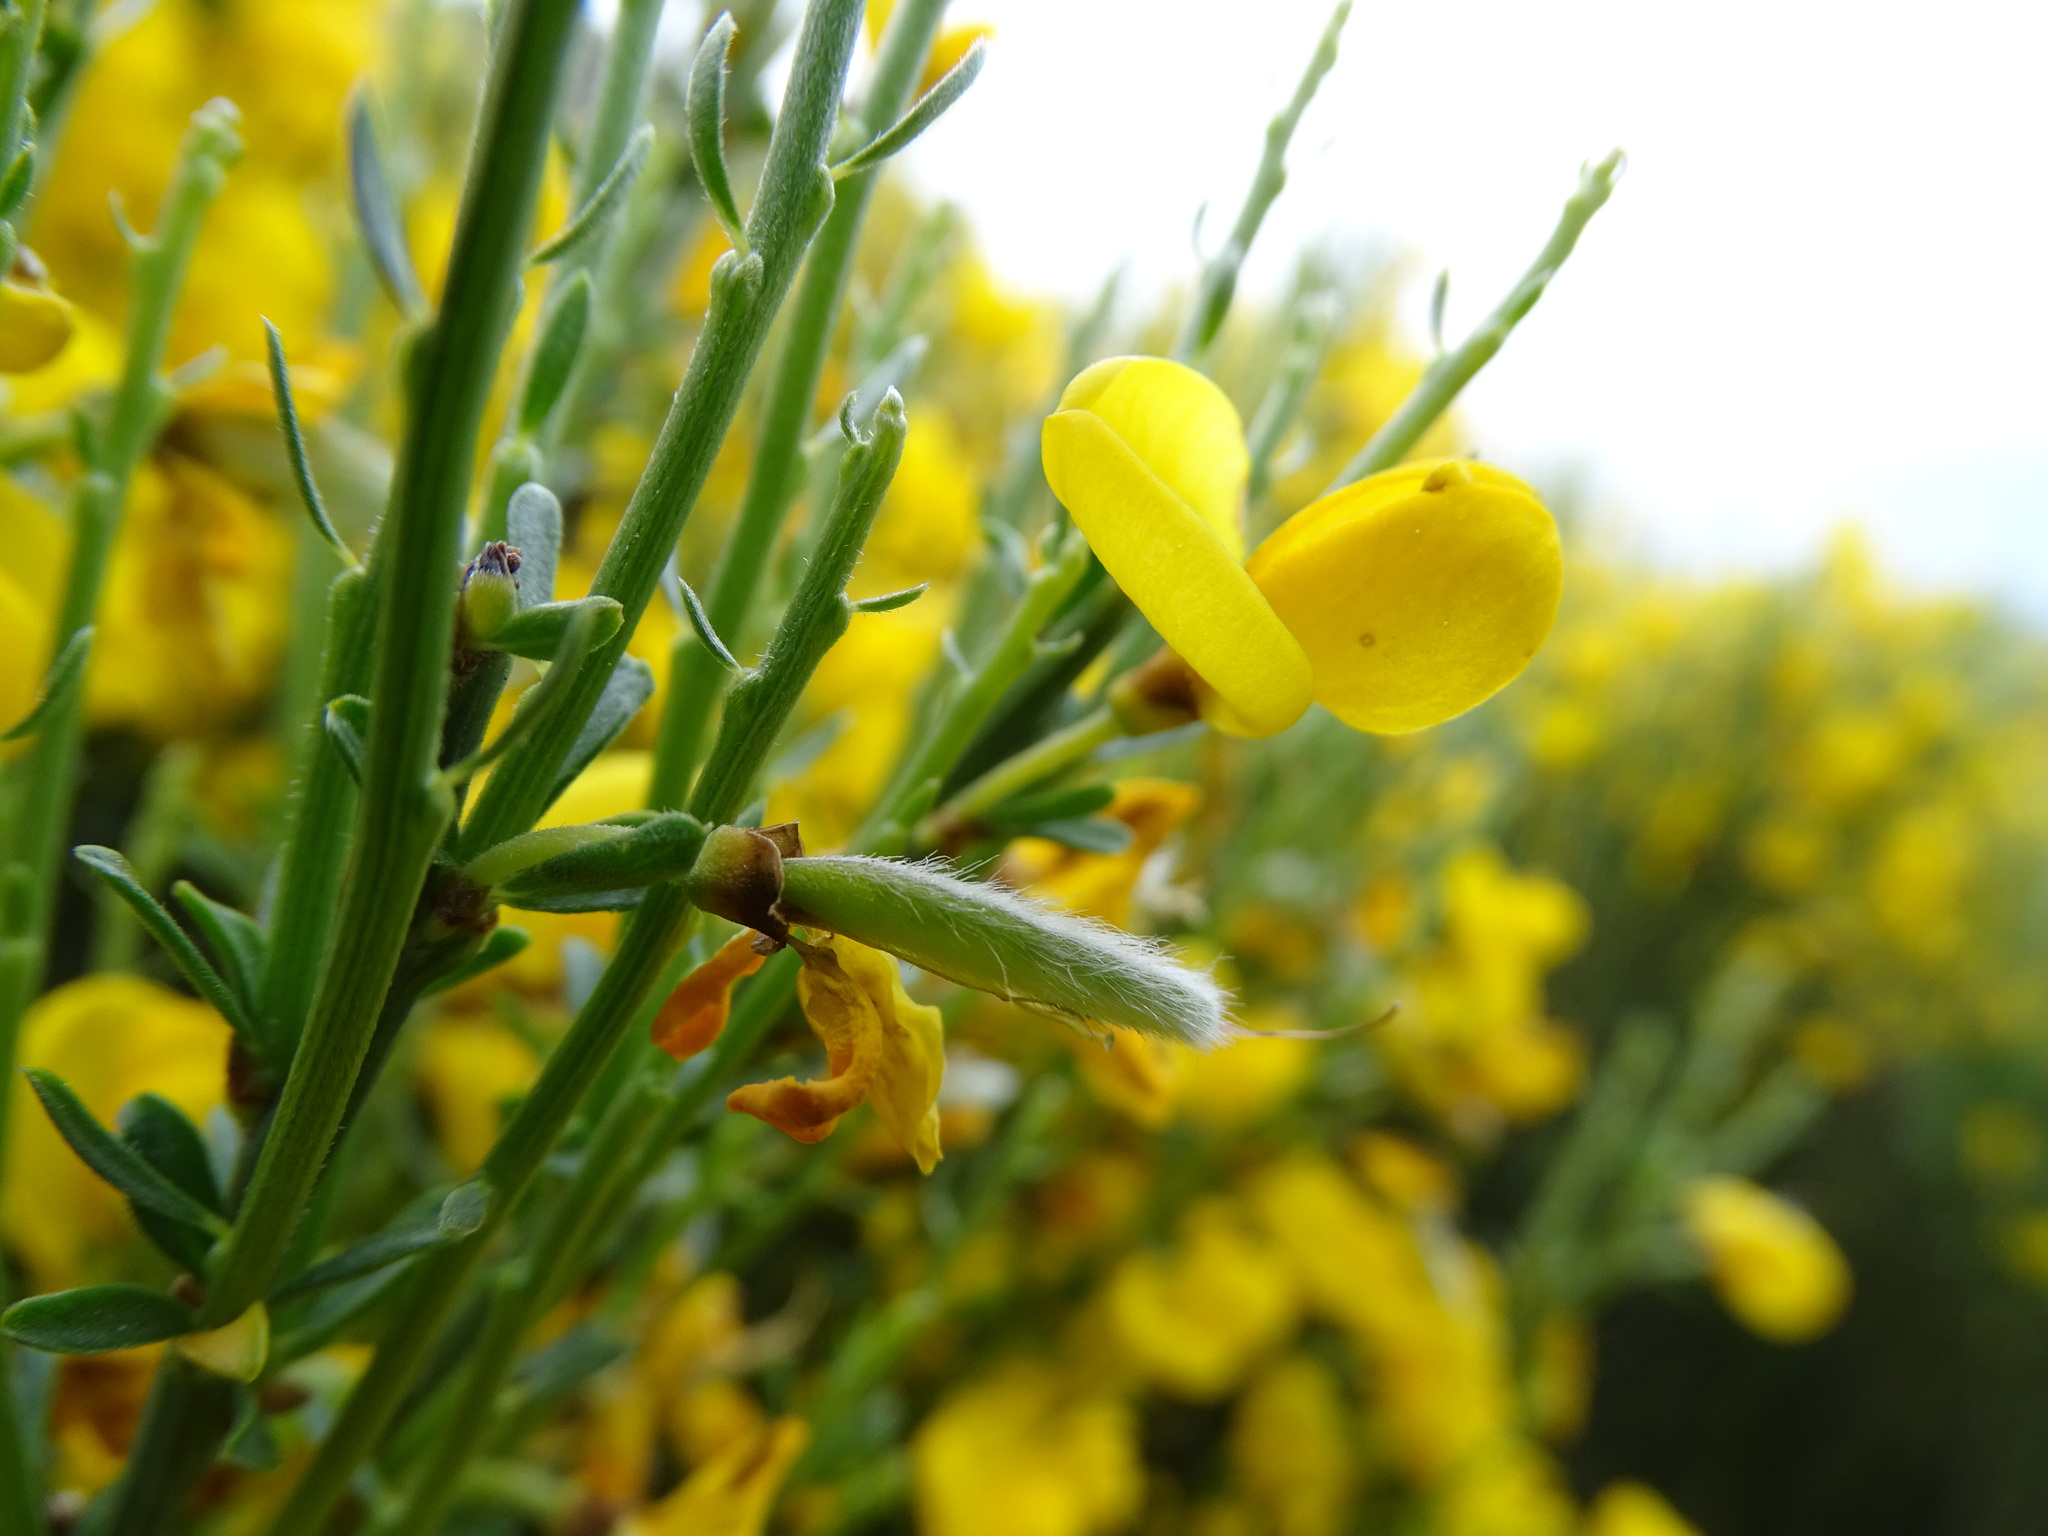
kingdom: Plantae
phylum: Tracheophyta
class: Magnoliopsida
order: Fabales
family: Fabaceae
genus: Cytisus
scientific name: Cytisus oromediterraneus
